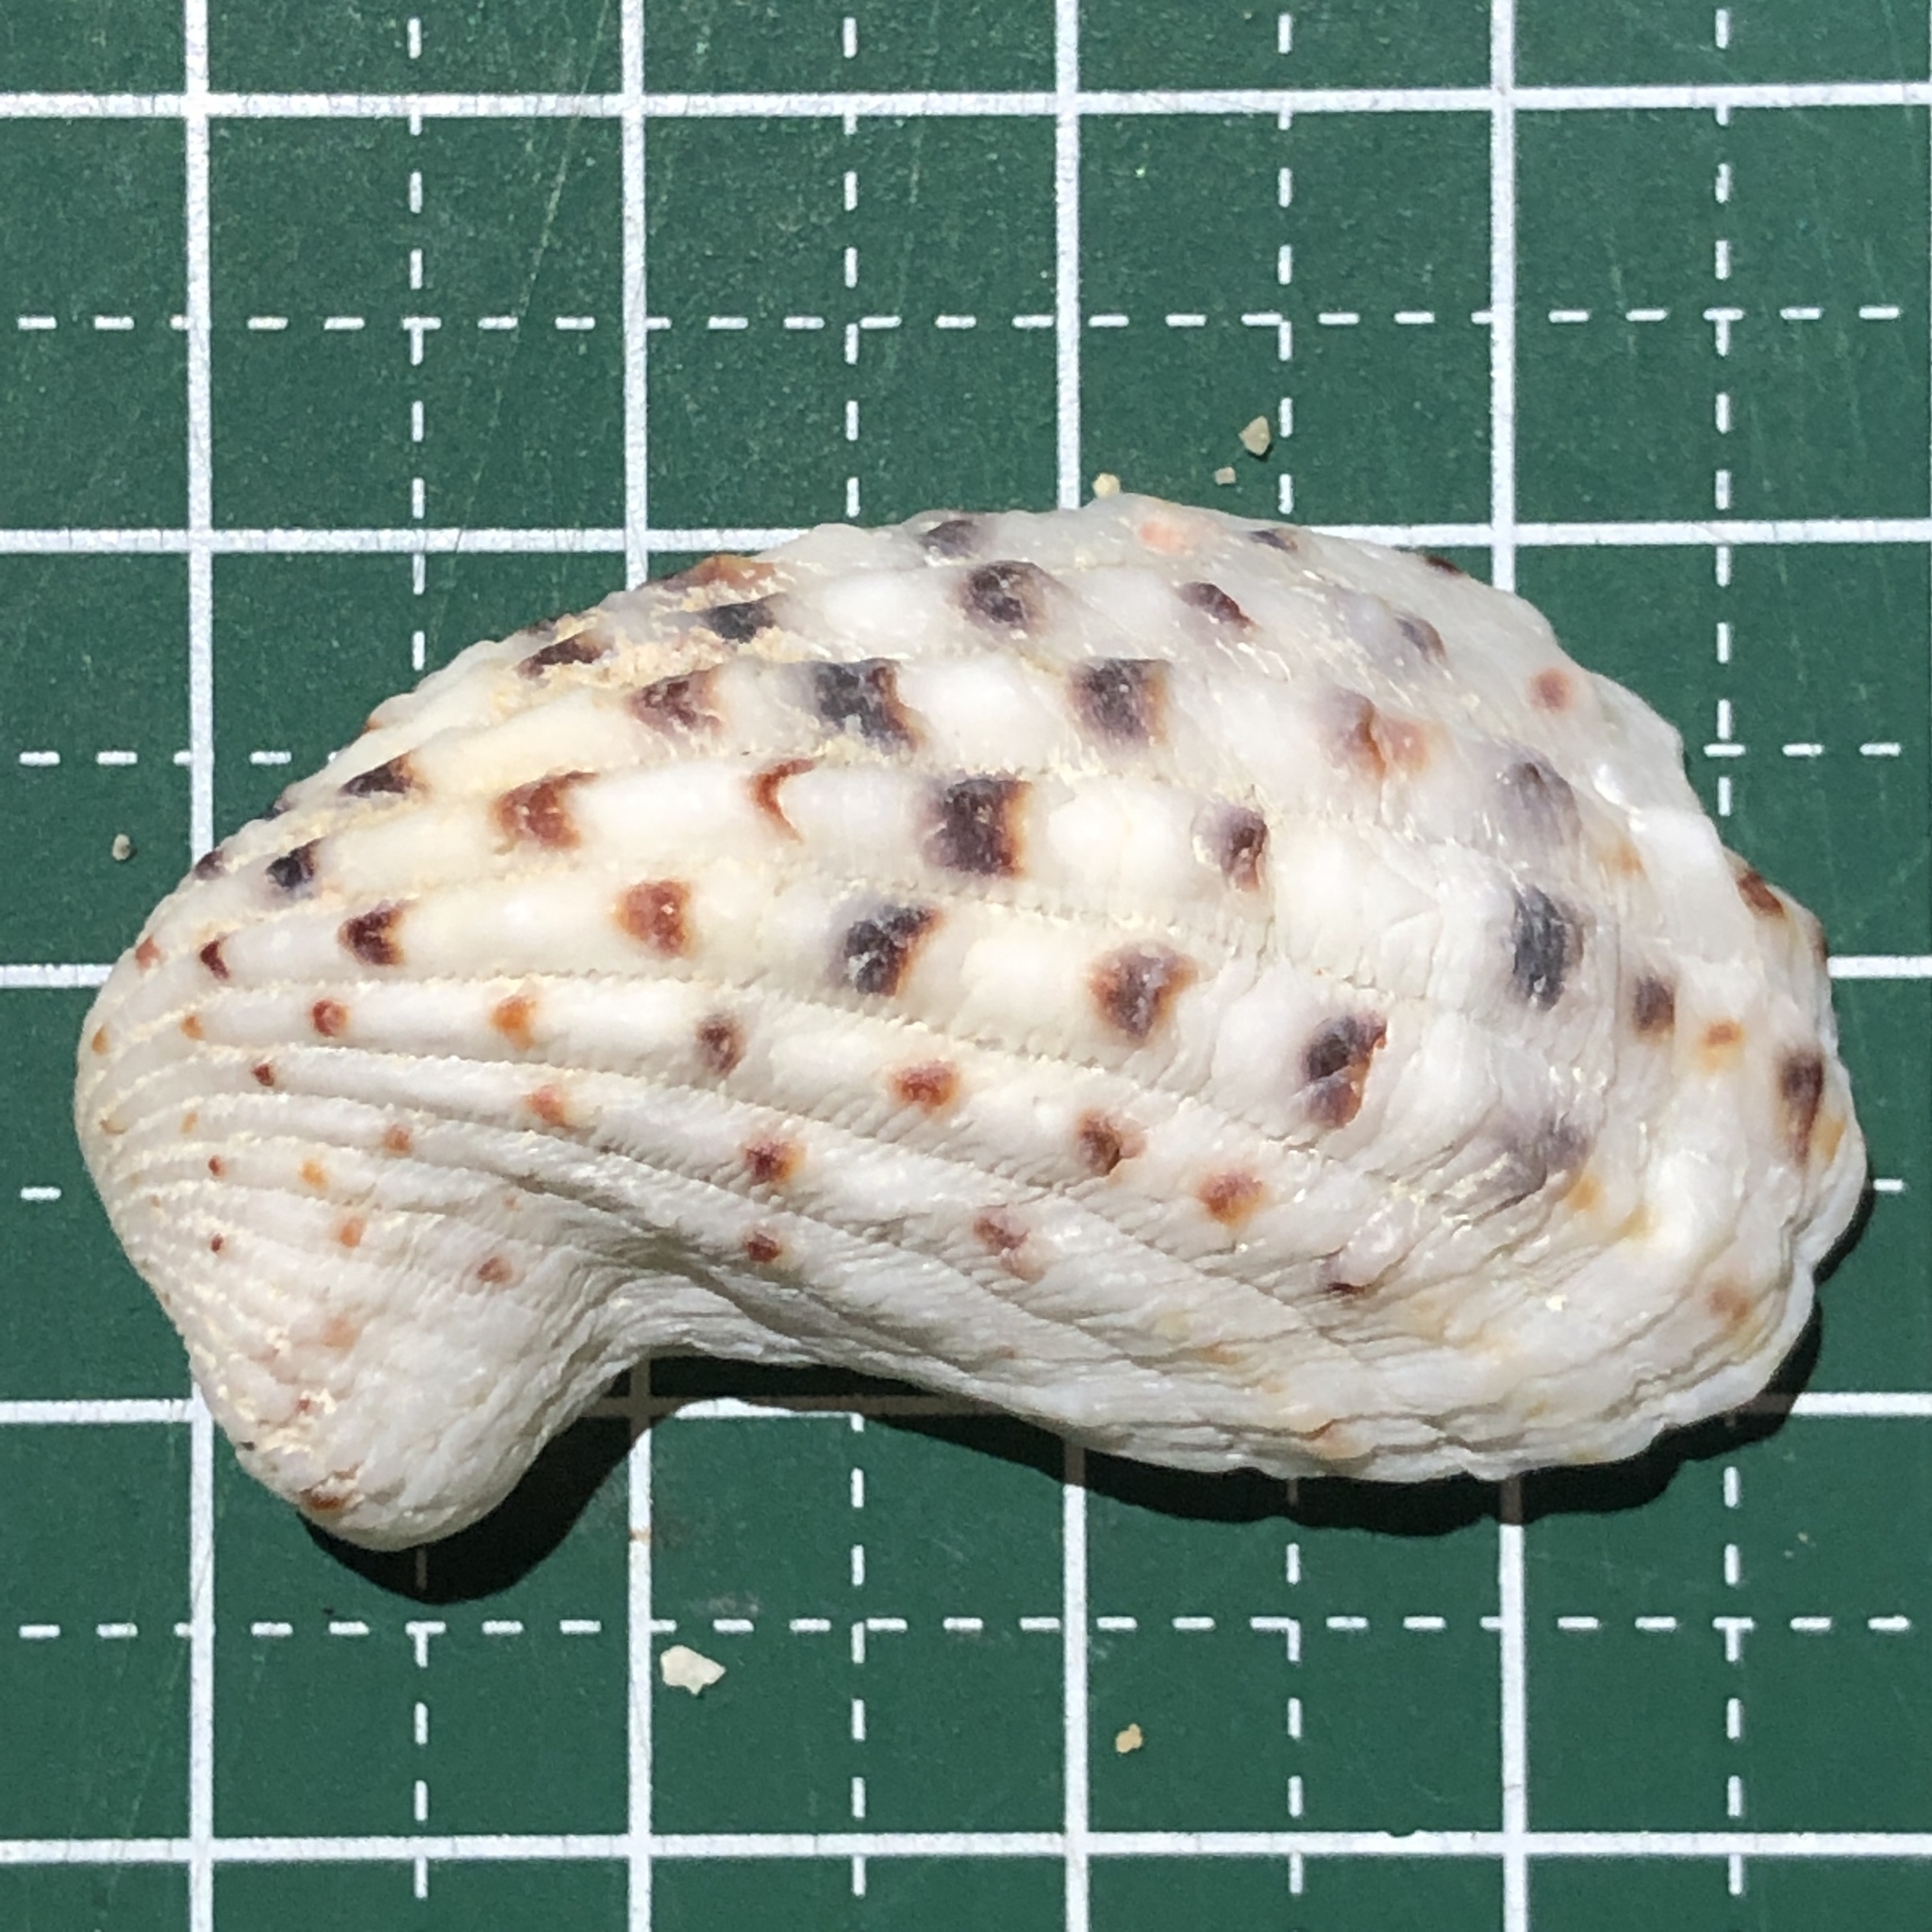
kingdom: Animalia
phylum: Mollusca
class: Bivalvia
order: Carditida
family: Carditidae
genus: Cardita
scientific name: Cardita variegata
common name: Rectangular false cockle
